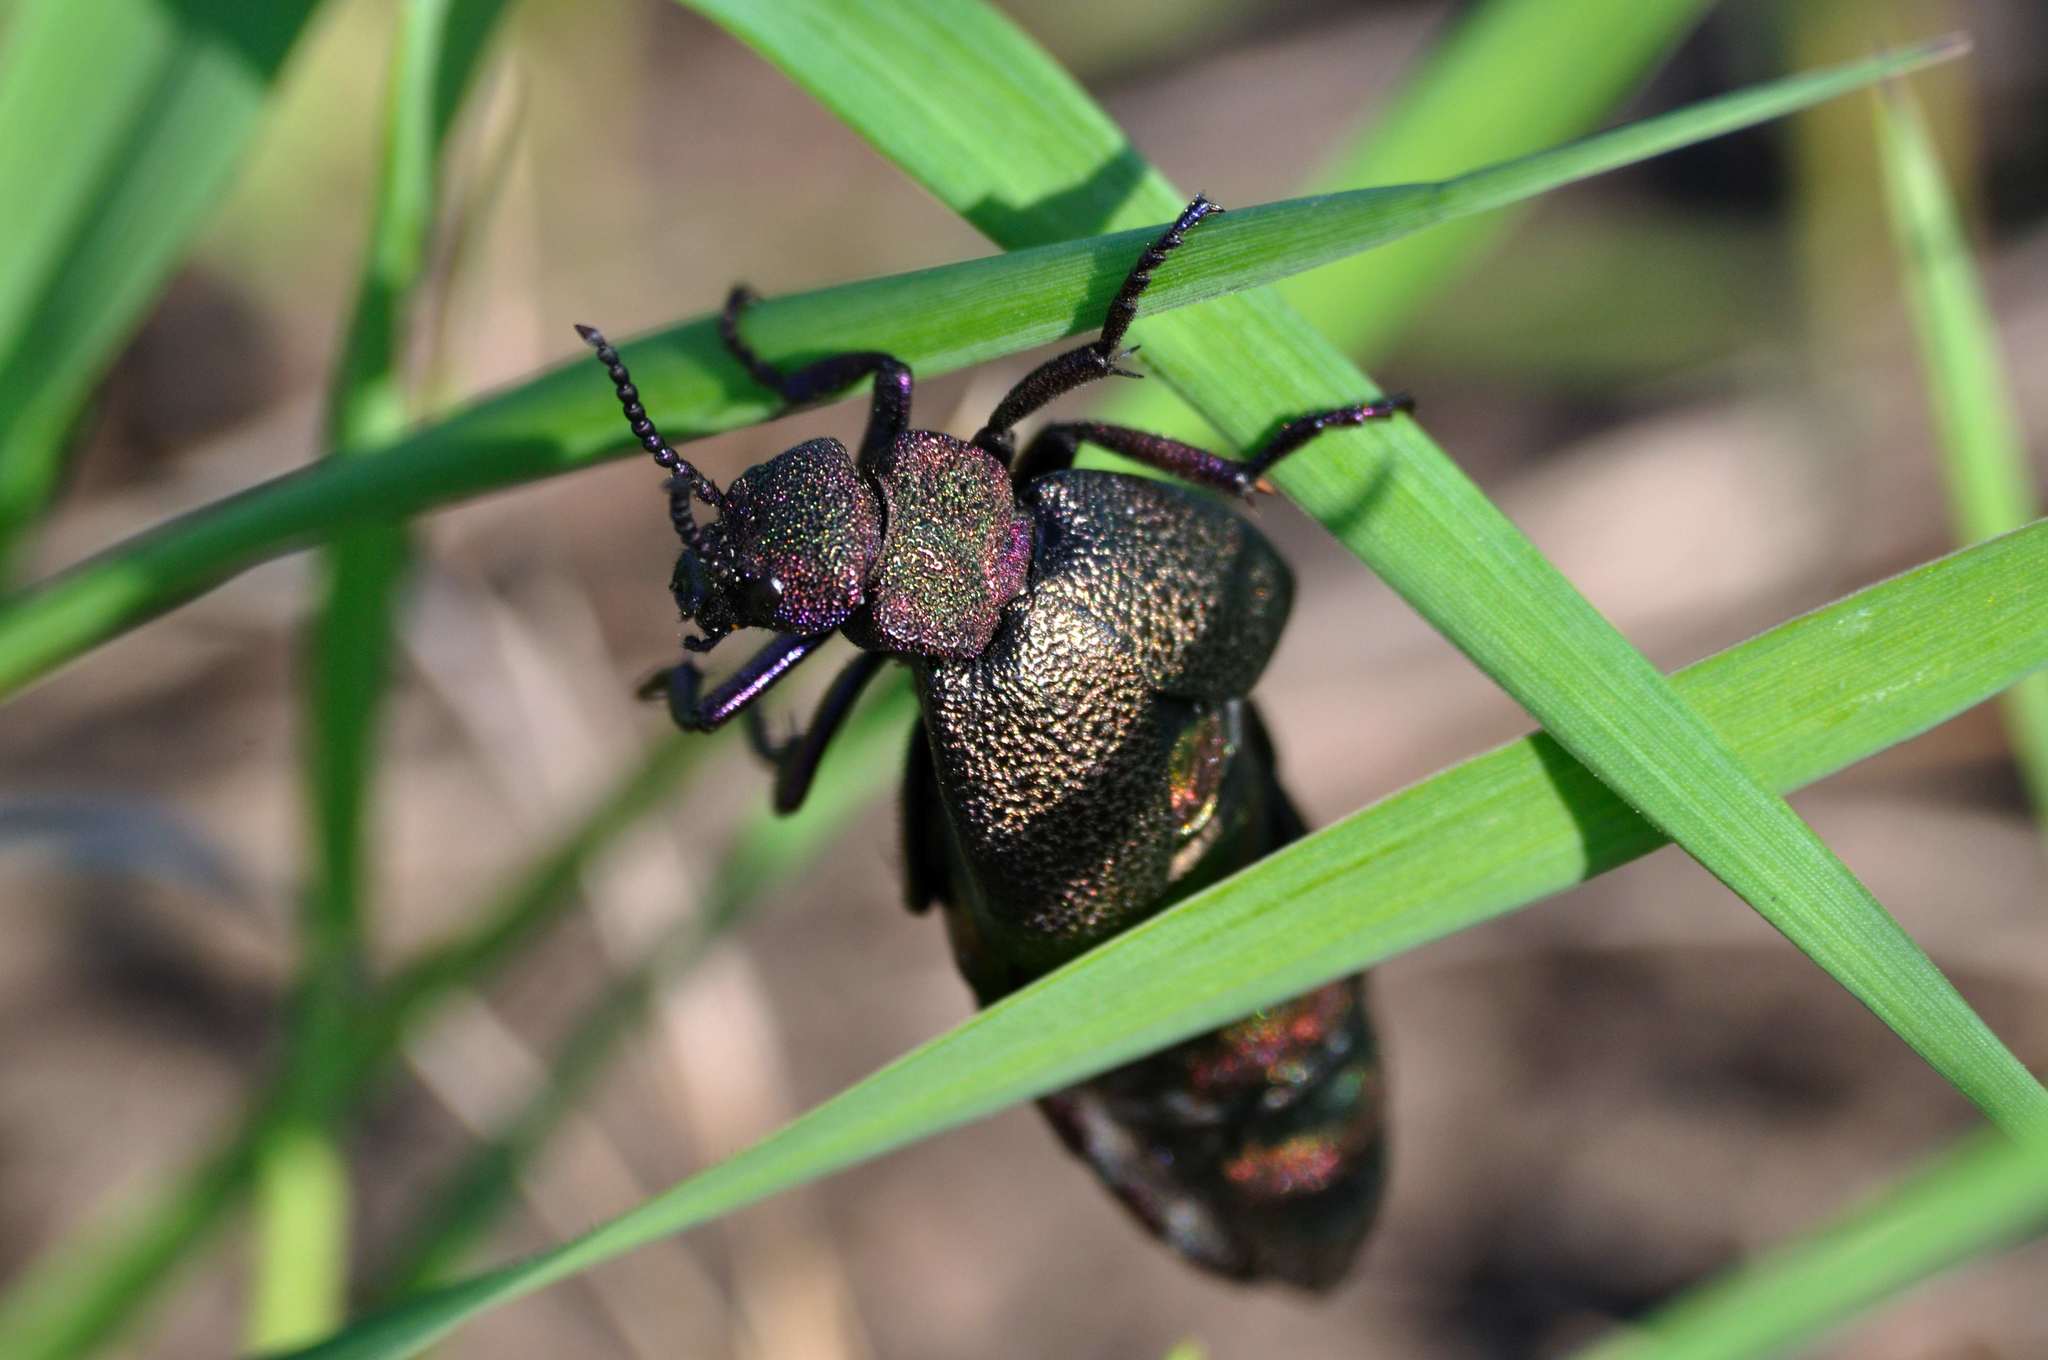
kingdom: Animalia
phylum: Arthropoda
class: Insecta
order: Coleoptera
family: Meloidae
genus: Meloe
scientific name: Meloe variegatus
